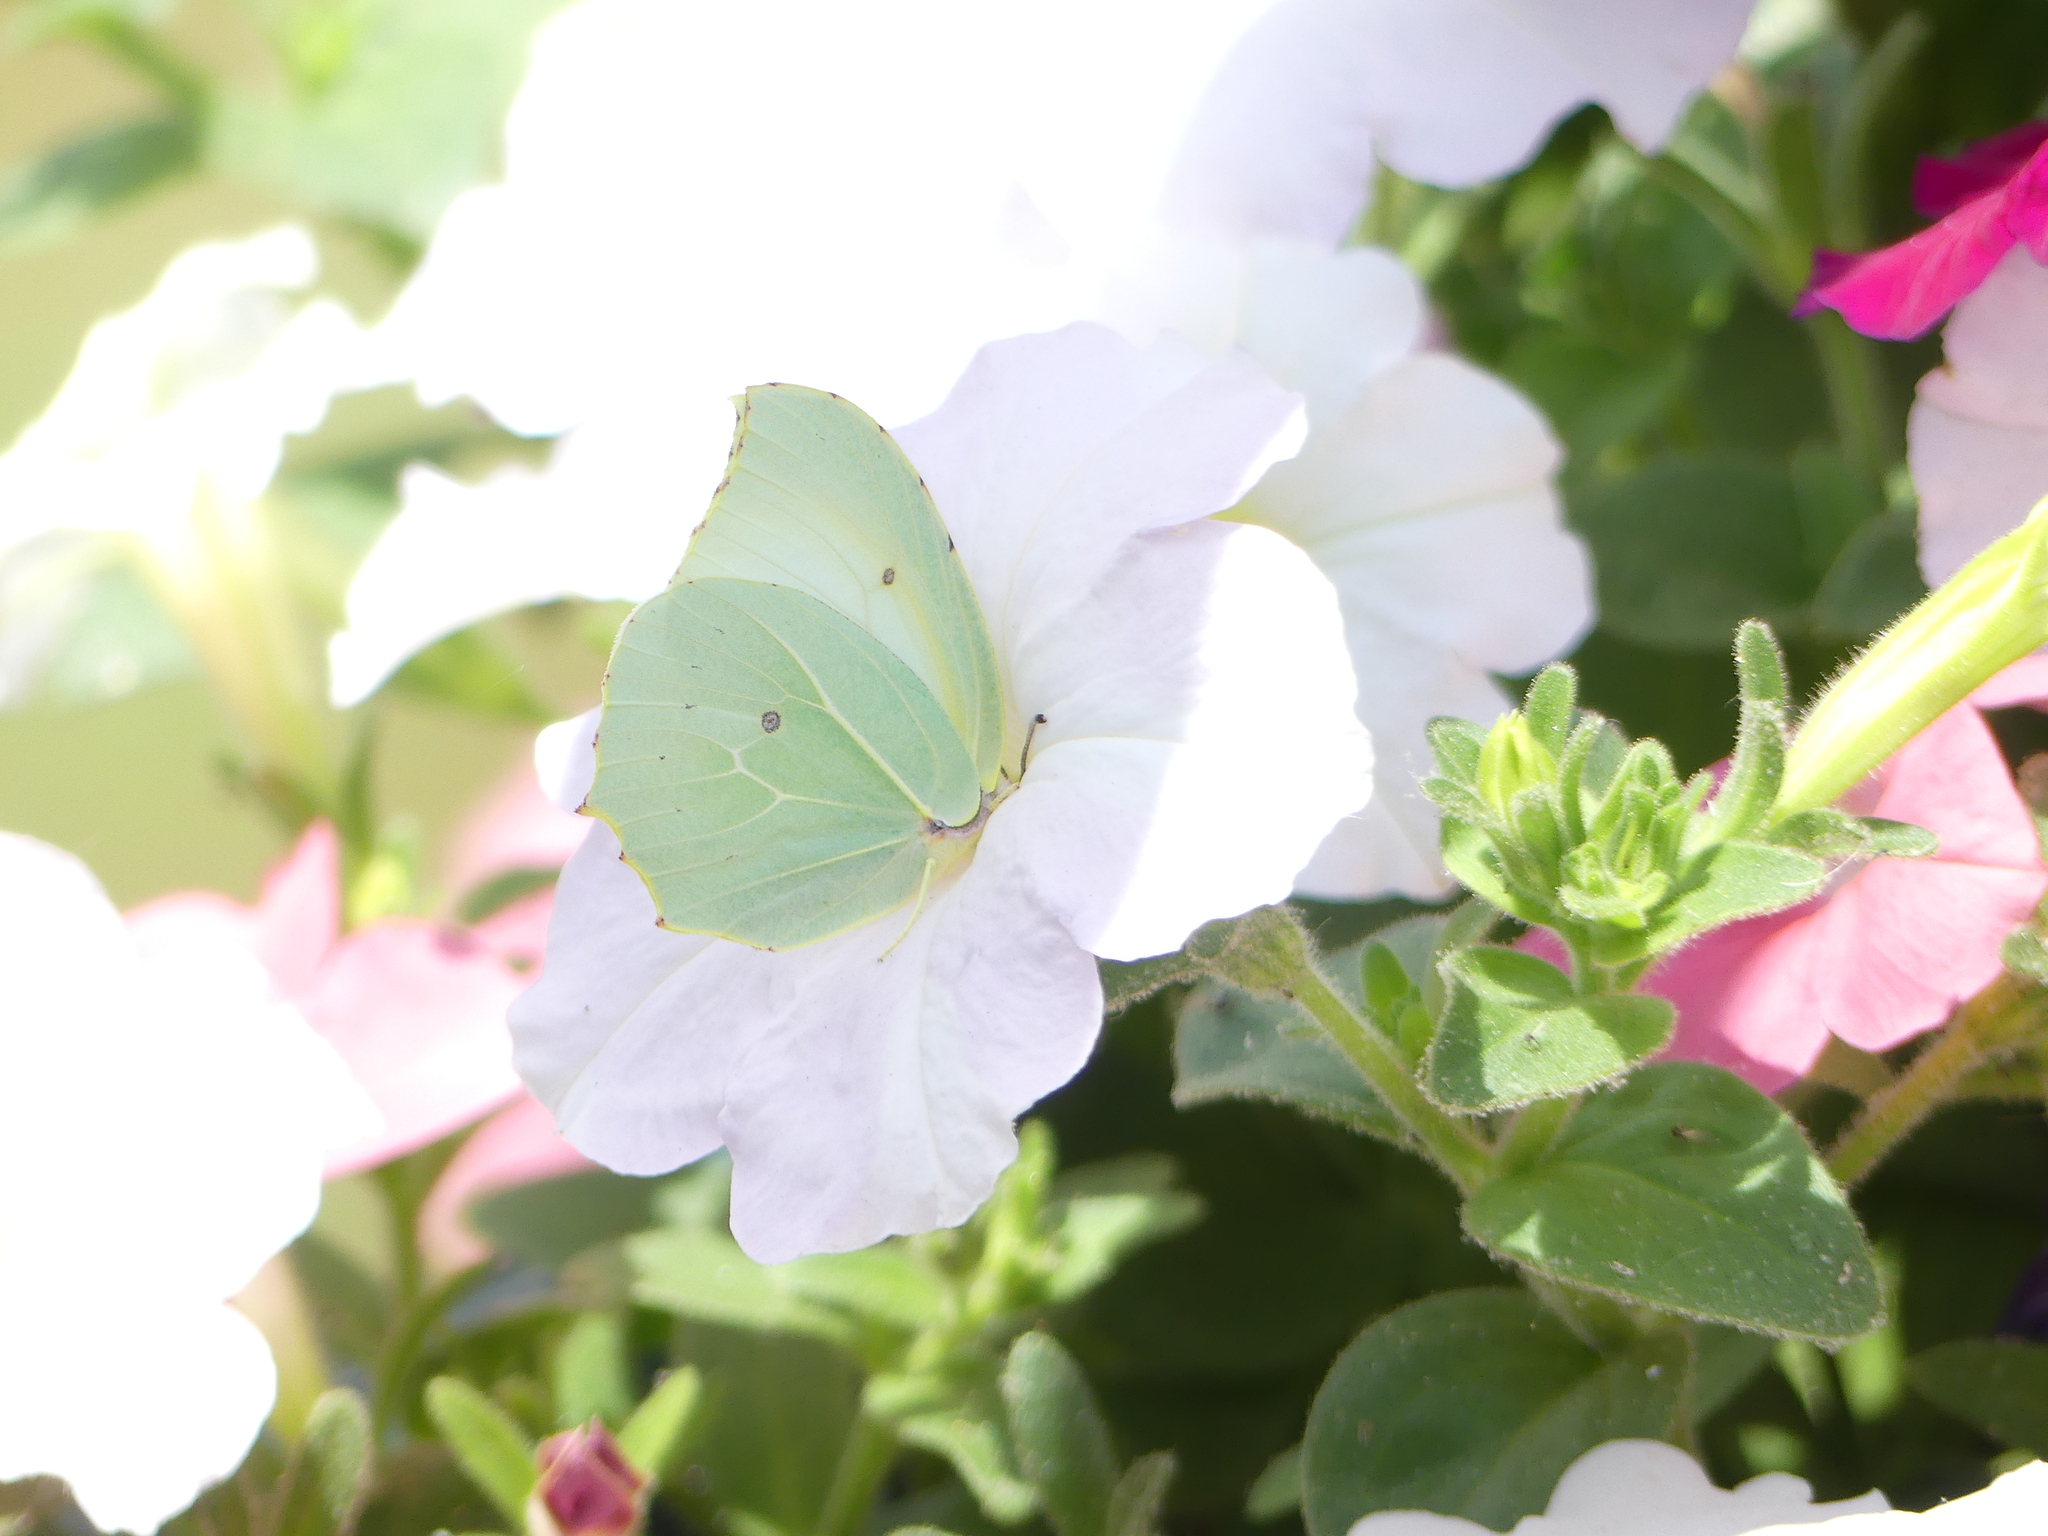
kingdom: Animalia
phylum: Arthropoda
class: Insecta
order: Lepidoptera
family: Pieridae
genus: Gonepteryx
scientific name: Gonepteryx cleopatra
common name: Cleopatra
